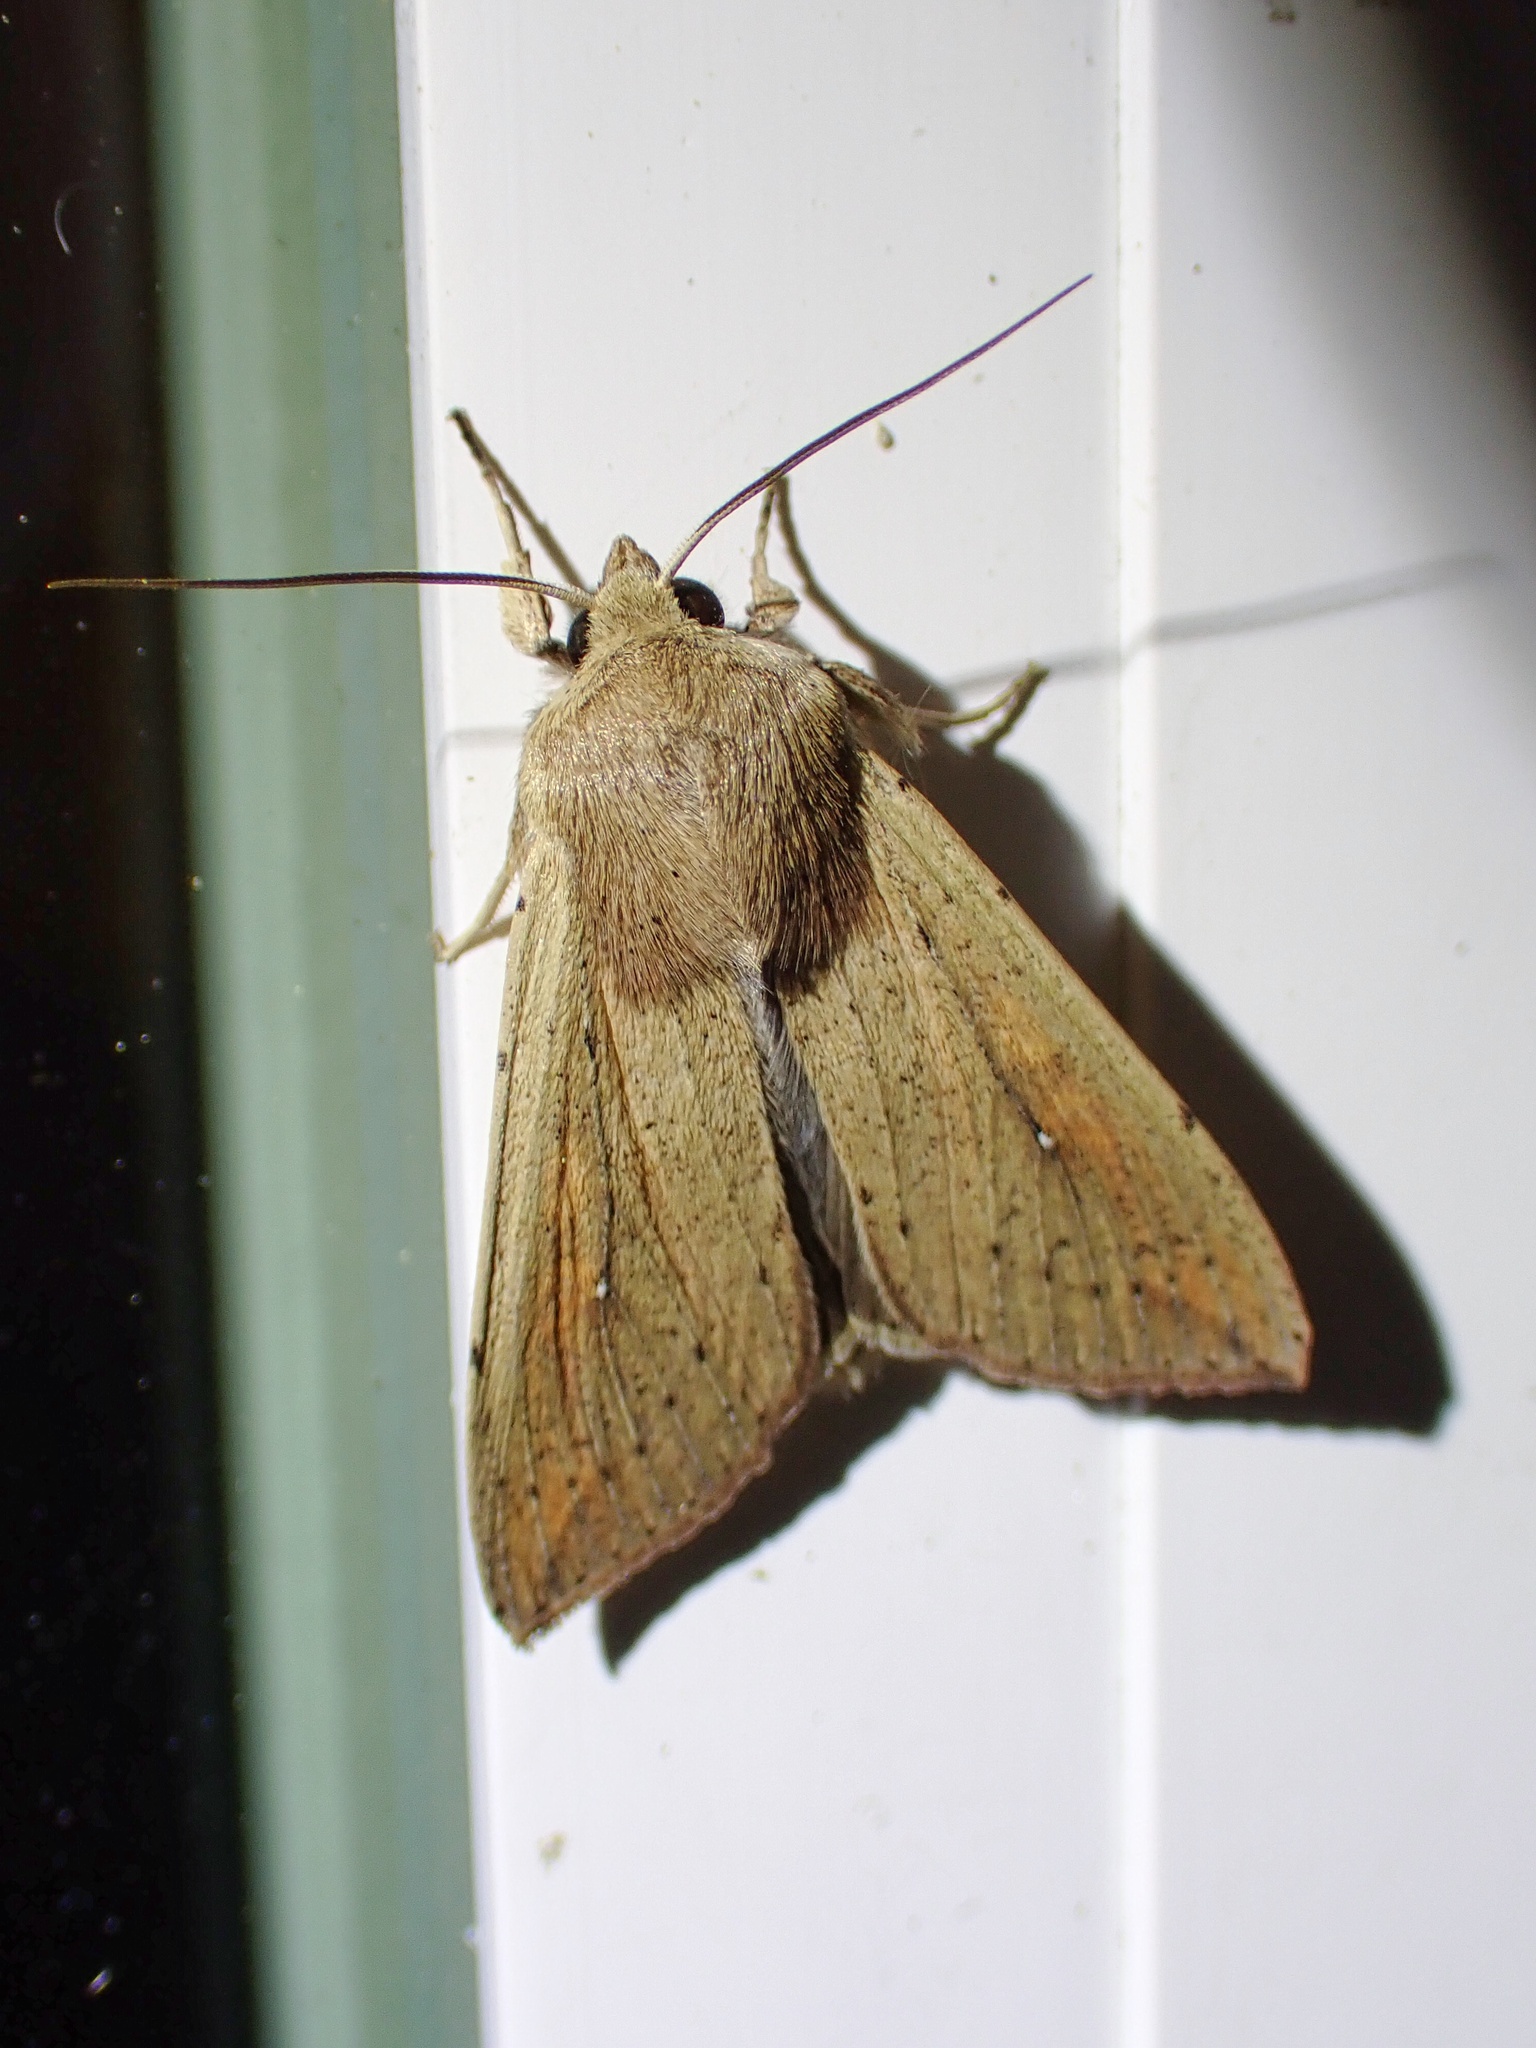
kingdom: Animalia
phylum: Arthropoda
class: Insecta
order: Lepidoptera
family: Noctuidae
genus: Mythimna
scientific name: Mythimna unipuncta
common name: White-speck
